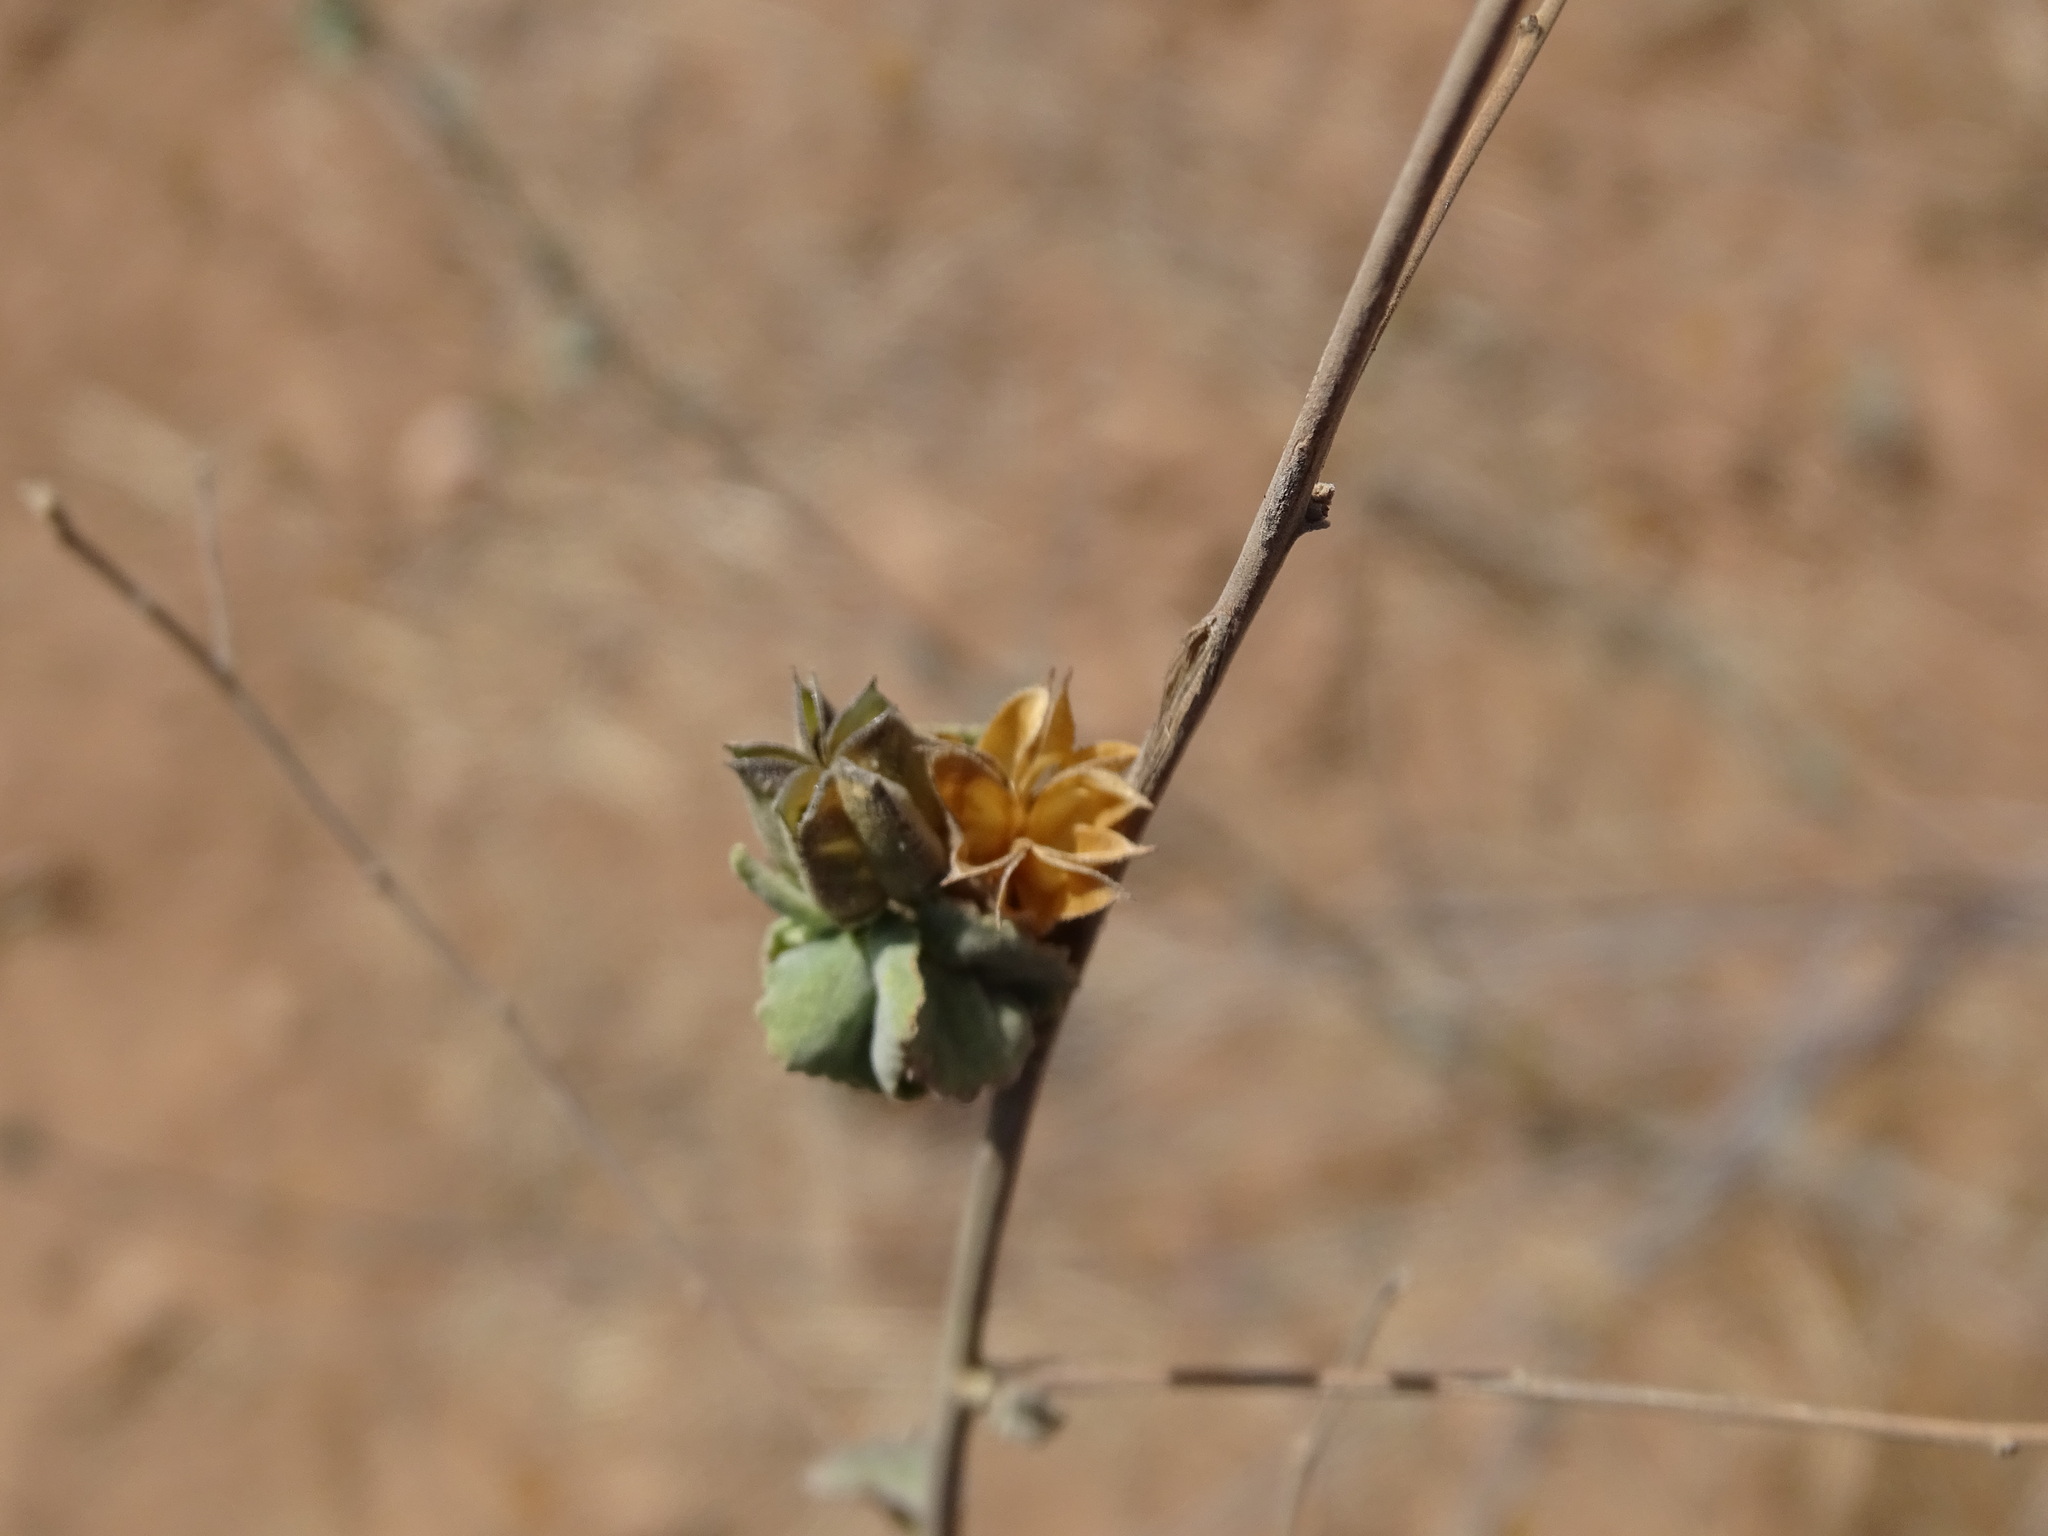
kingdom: Plantae
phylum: Tracheophyta
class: Magnoliopsida
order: Malvales
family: Malvaceae
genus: Abutilon
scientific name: Abutilon incanum
